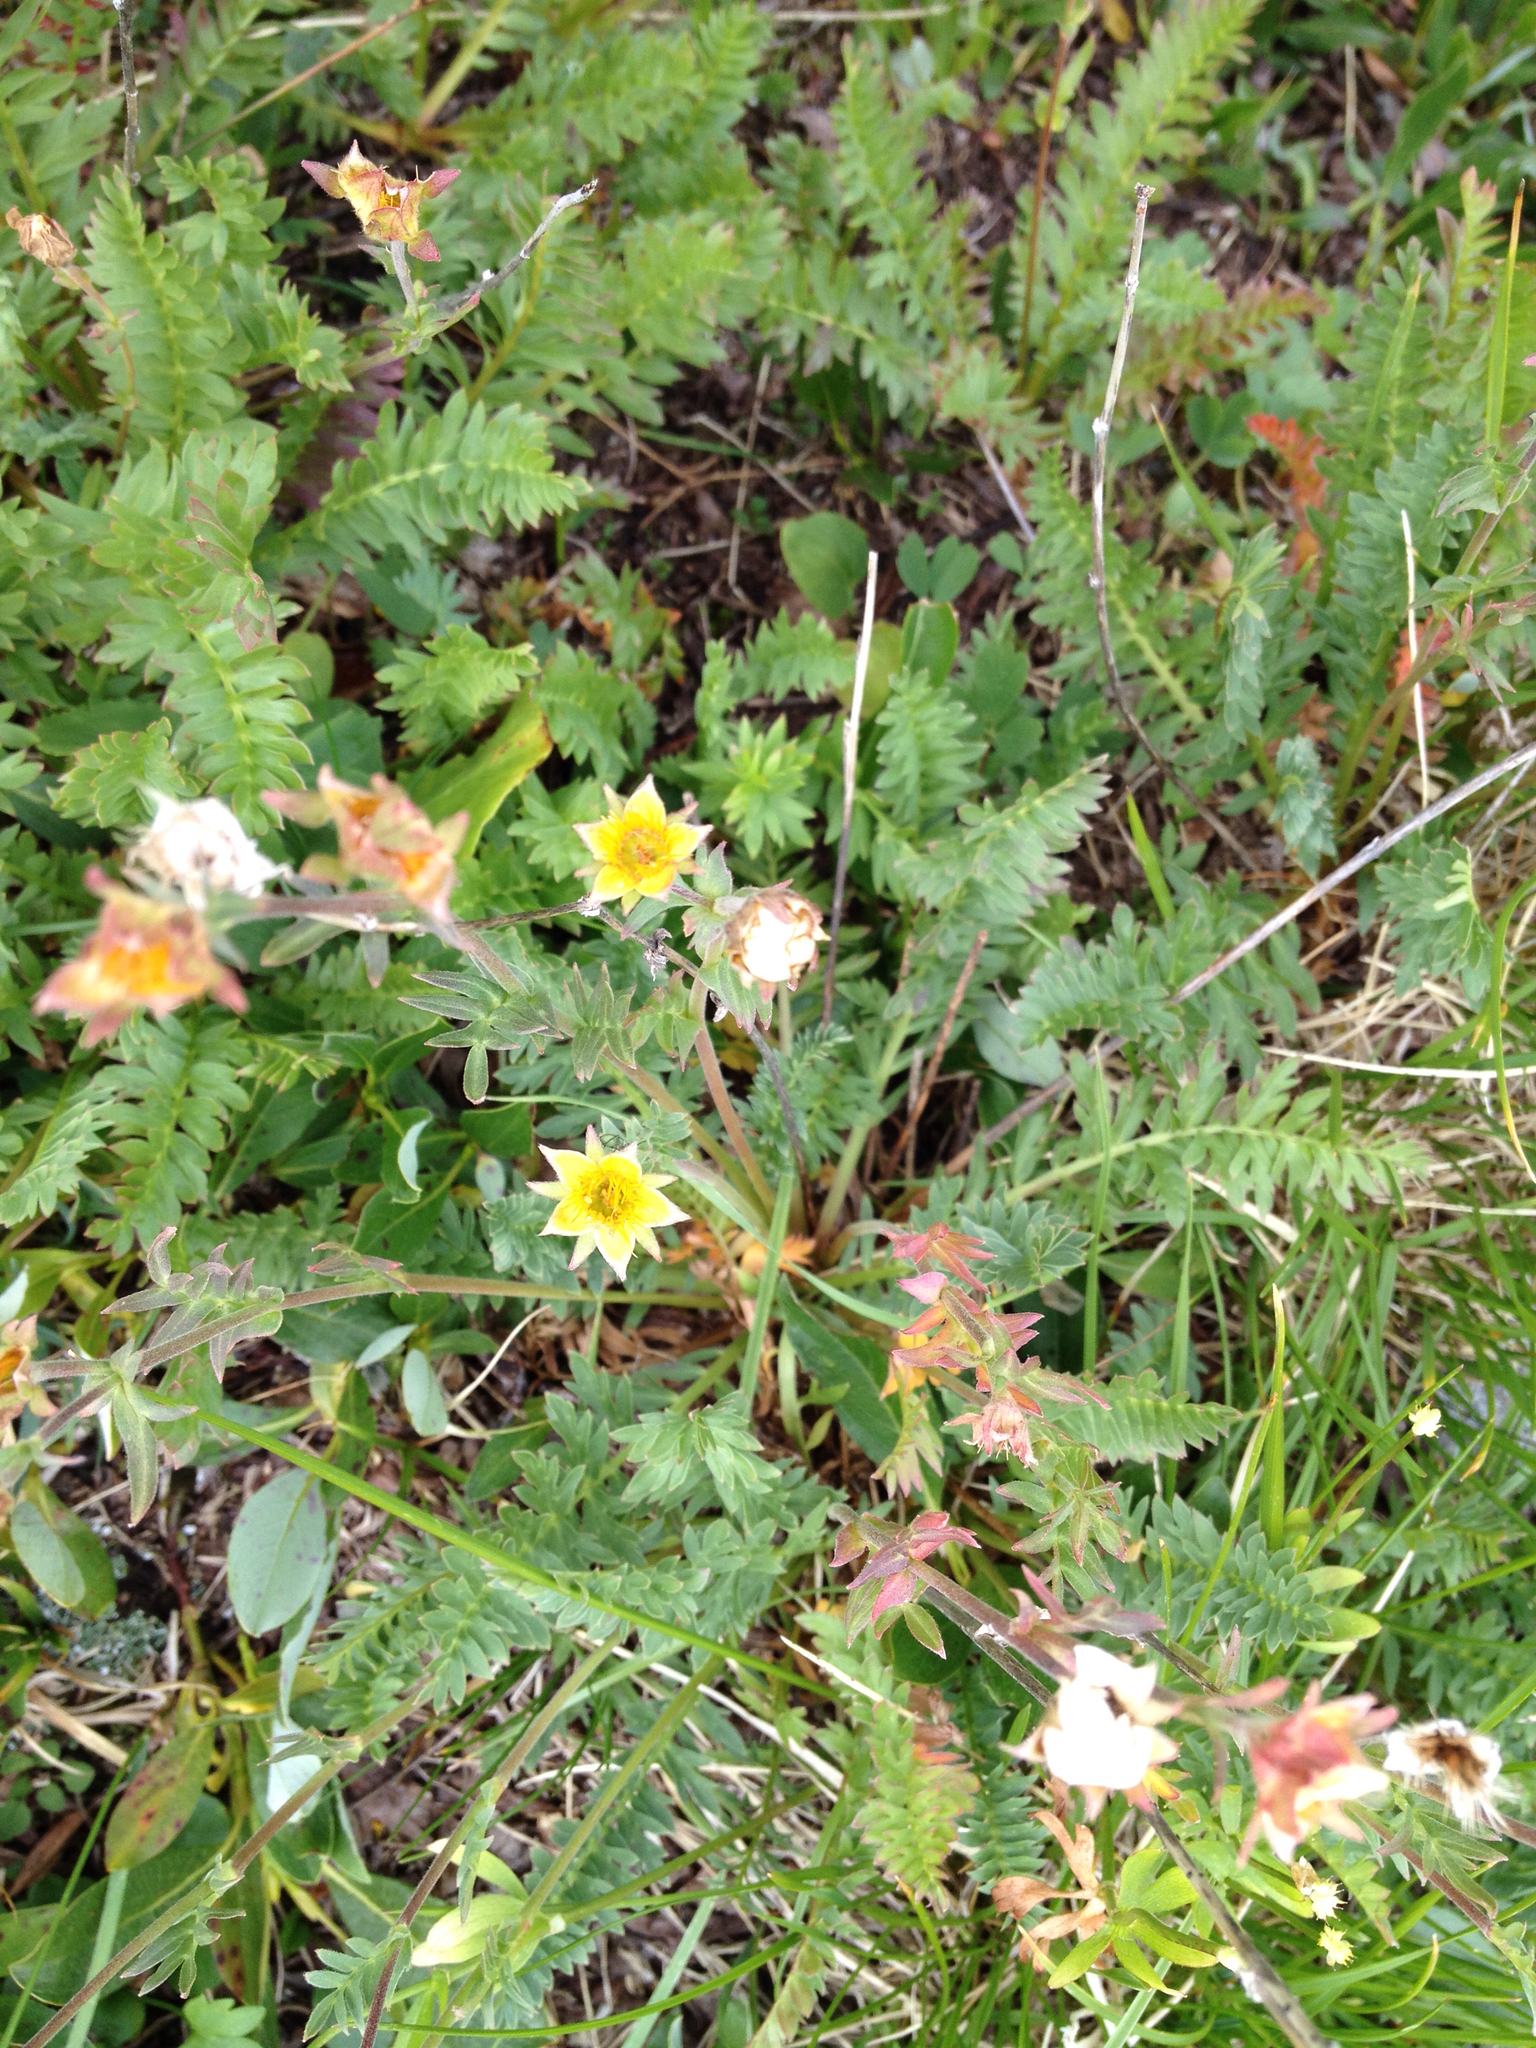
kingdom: Plantae
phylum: Tracheophyta
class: Magnoliopsida
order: Rosales
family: Rosaceae
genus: Geum
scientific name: Geum rossii
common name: Alpine avens
